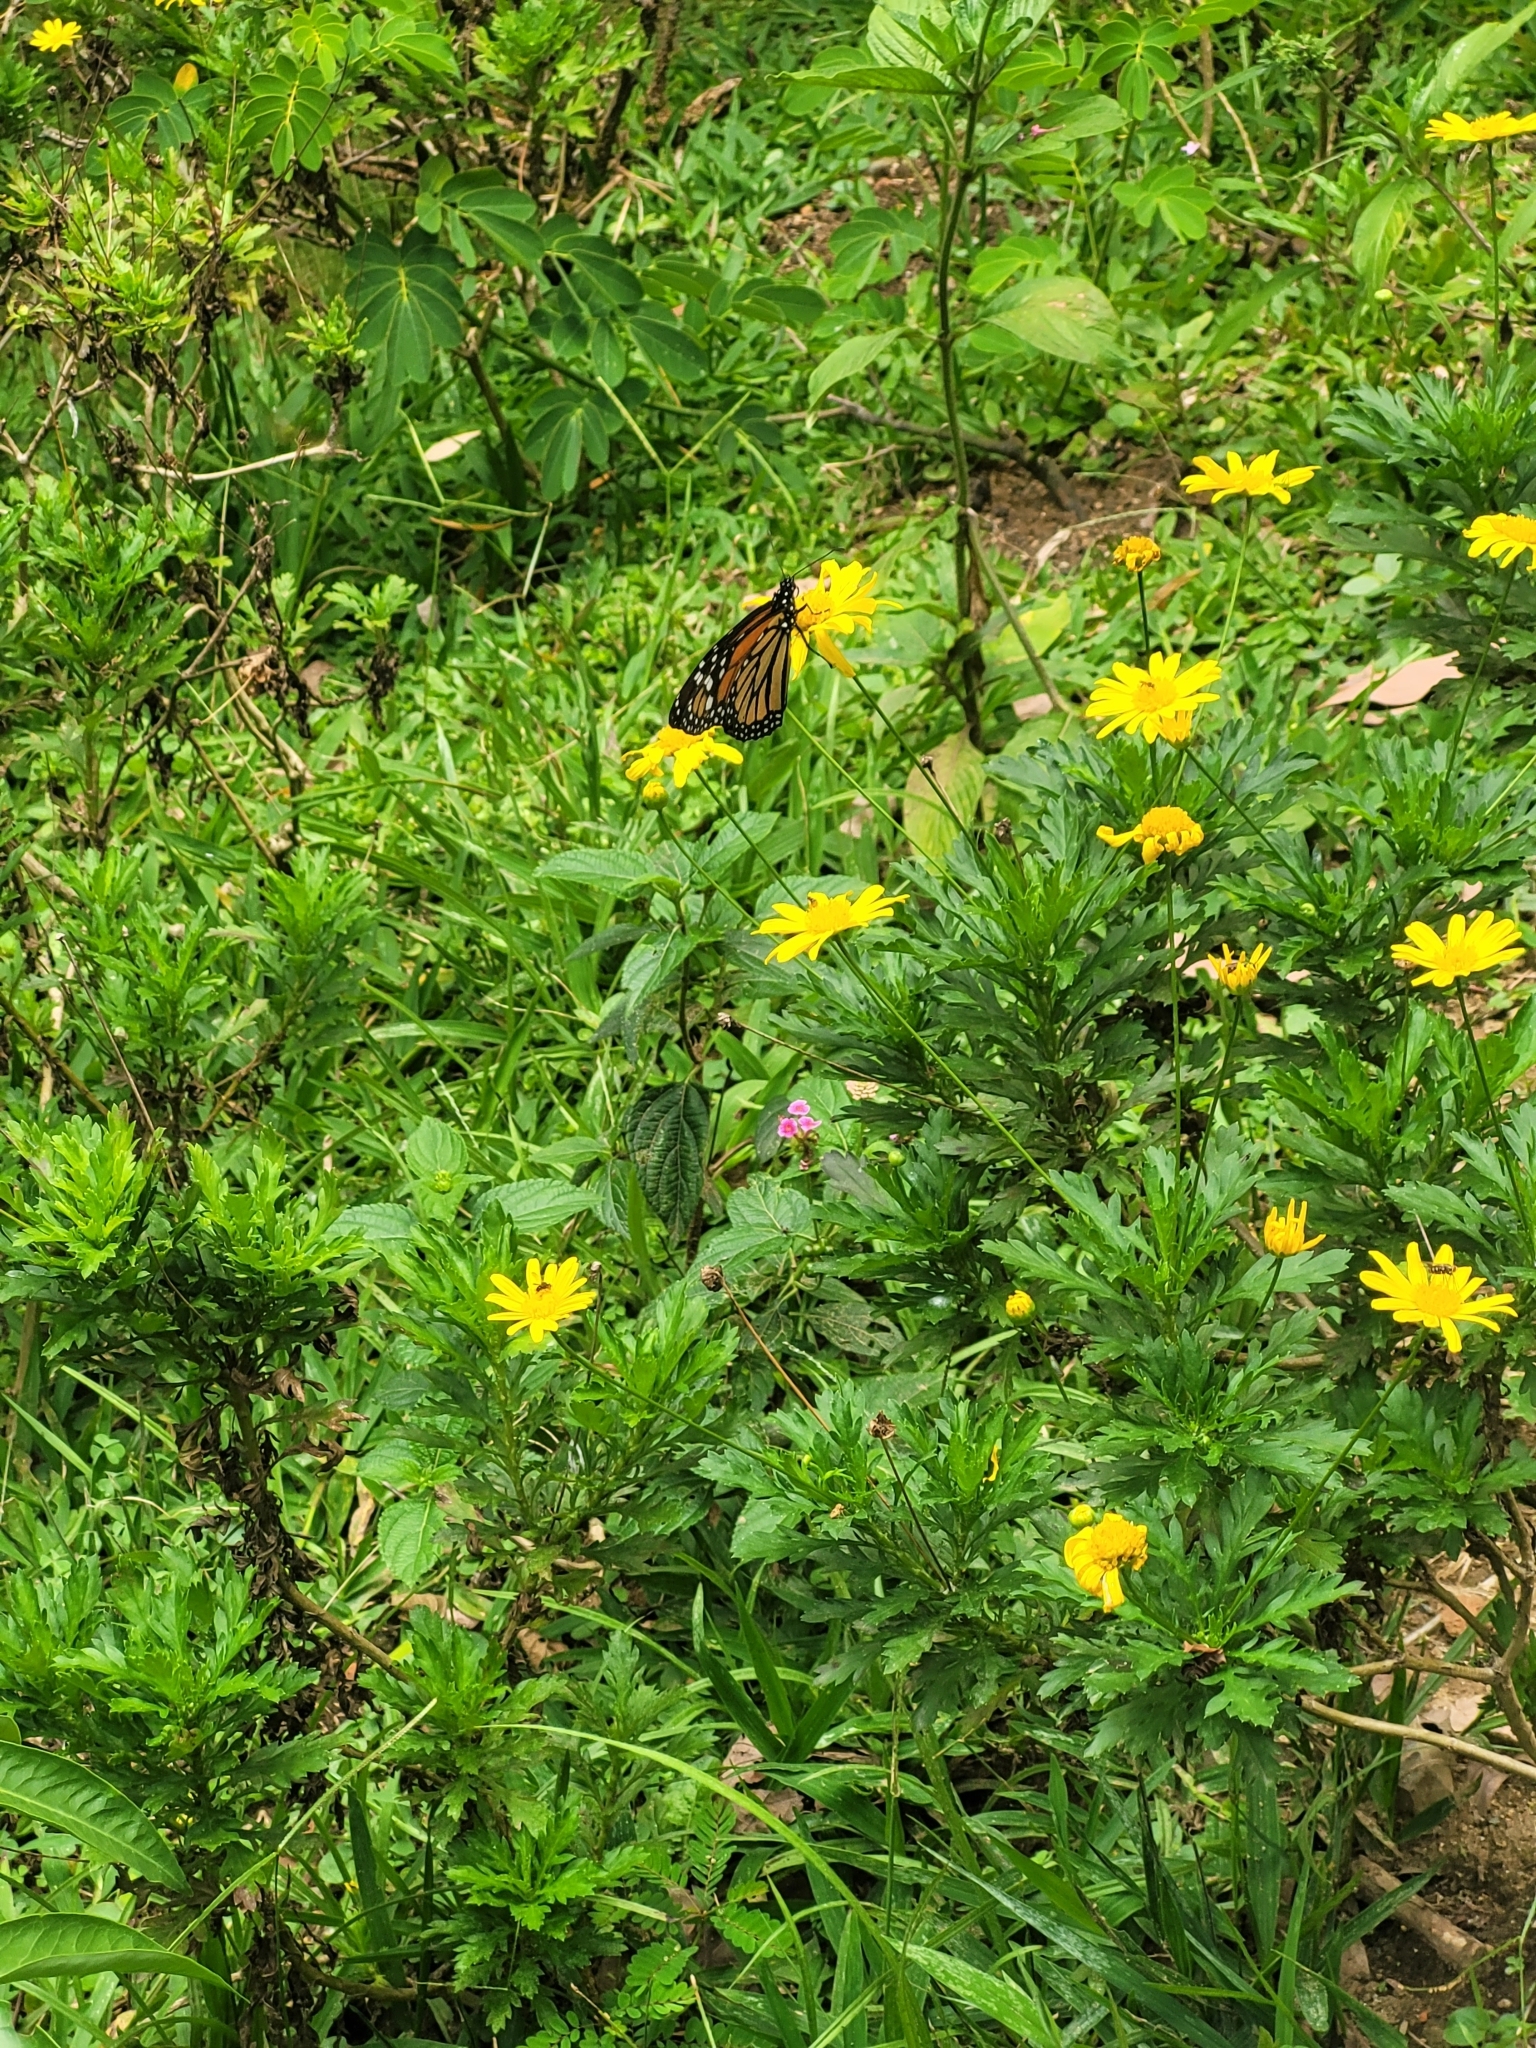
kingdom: Animalia
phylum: Arthropoda
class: Insecta
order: Lepidoptera
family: Nymphalidae
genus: Danaus
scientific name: Danaus plexippus
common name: Monarch
